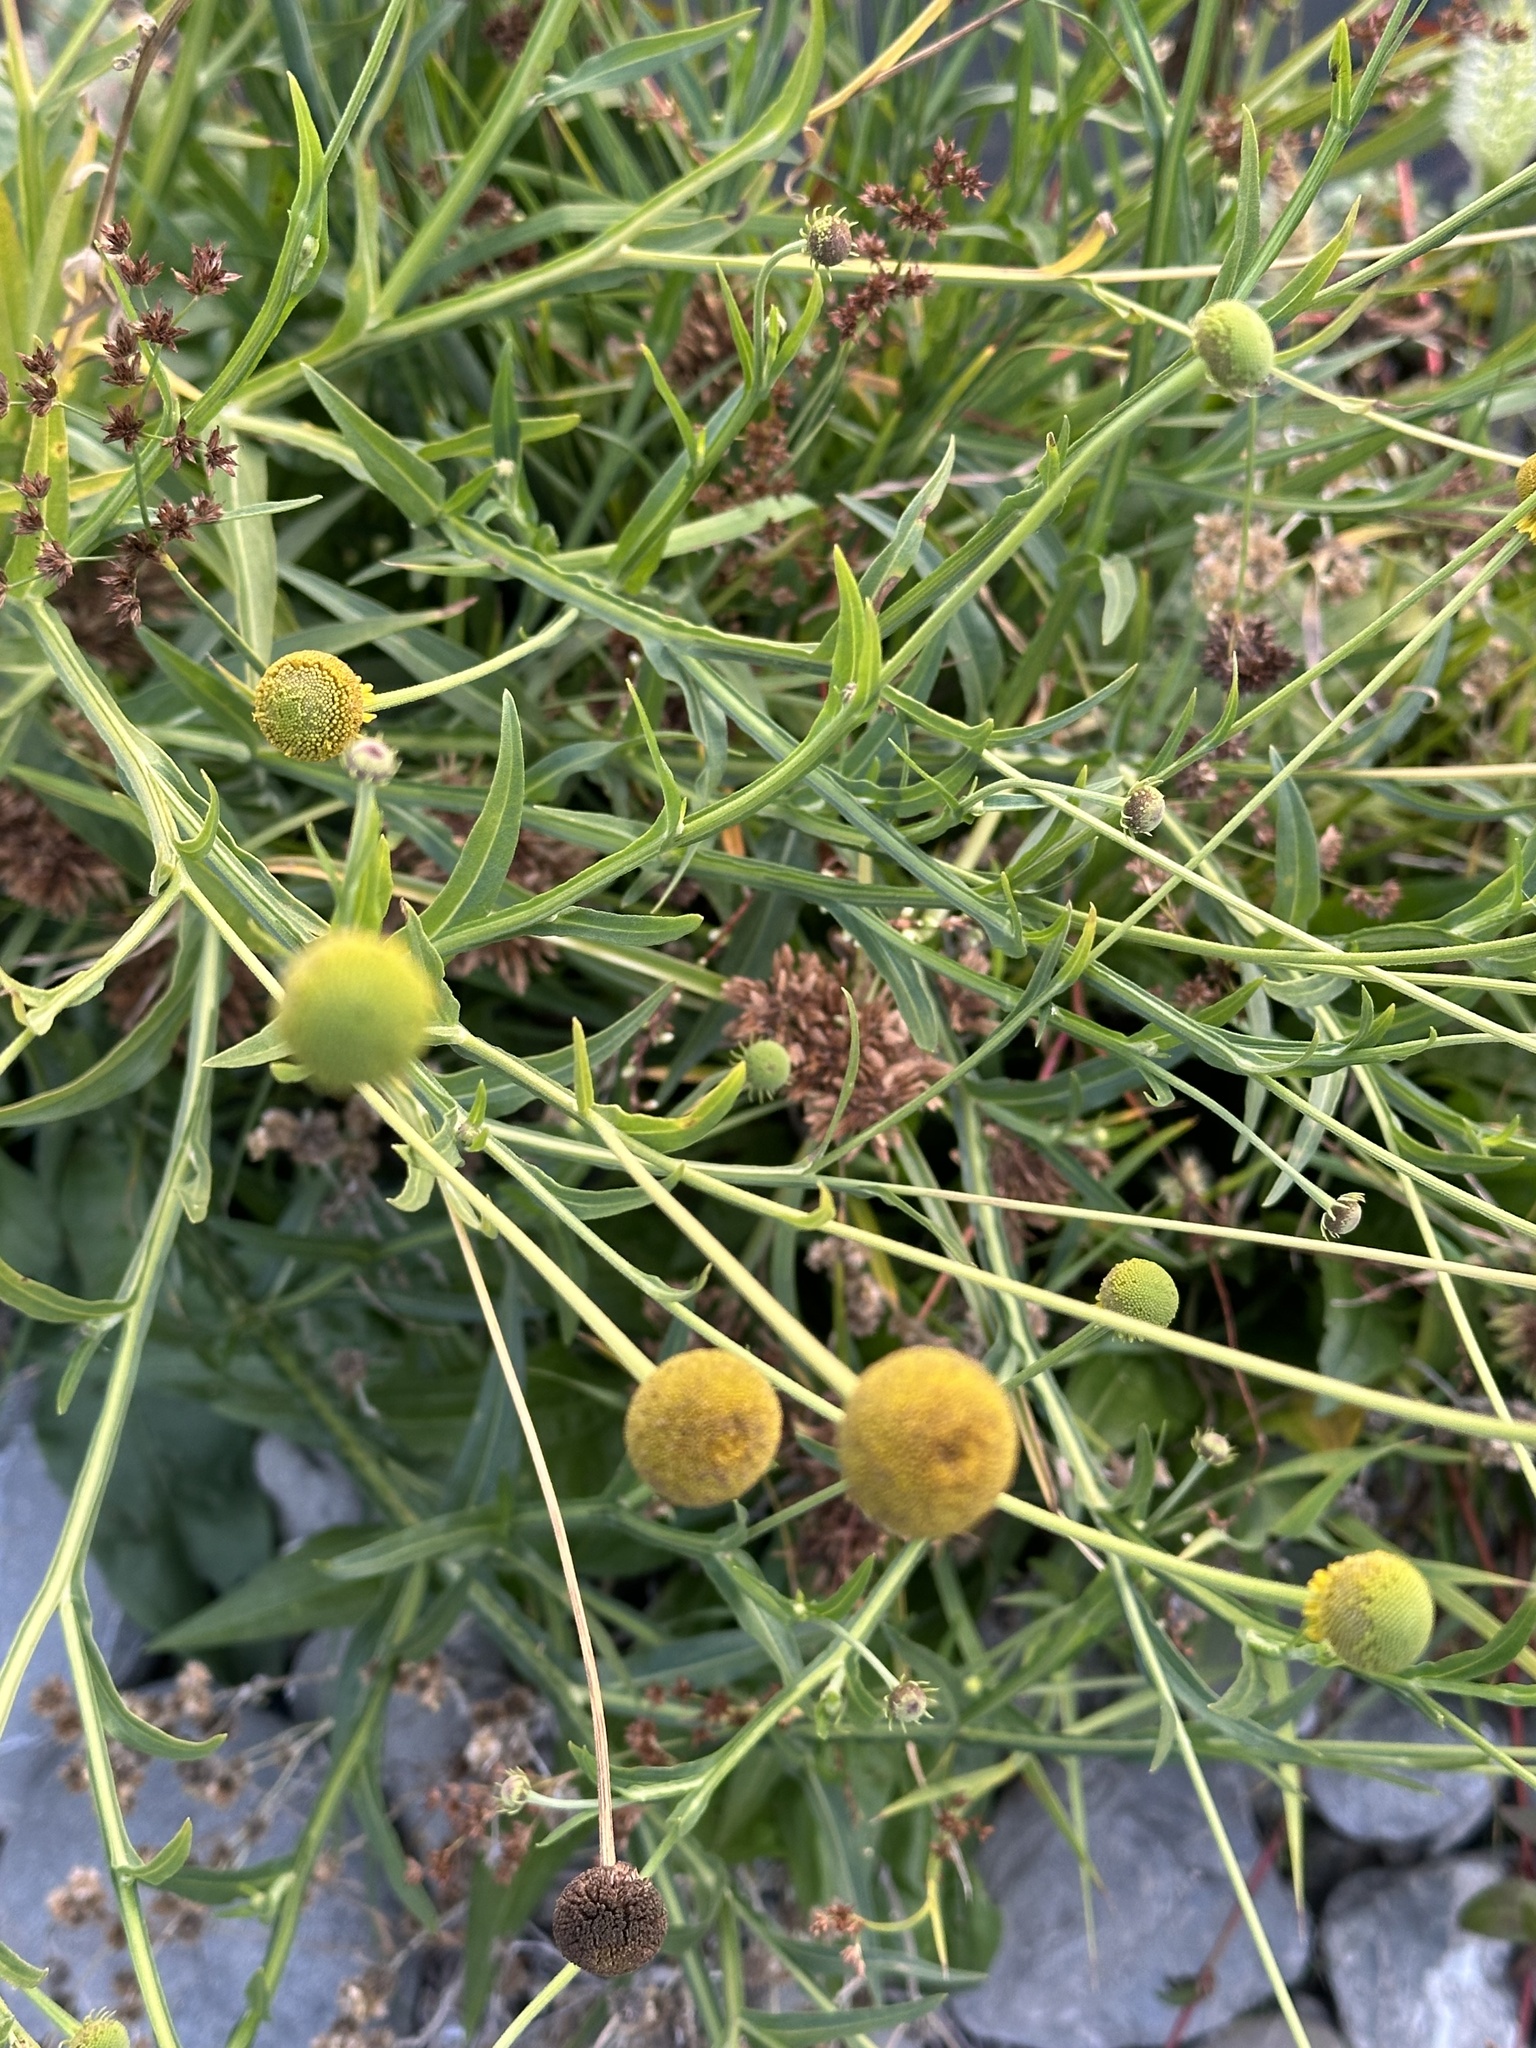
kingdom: Plantae
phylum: Tracheophyta
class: Magnoliopsida
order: Asterales
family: Asteraceae
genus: Helenium
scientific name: Helenium puberulum
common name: Sneezewort
